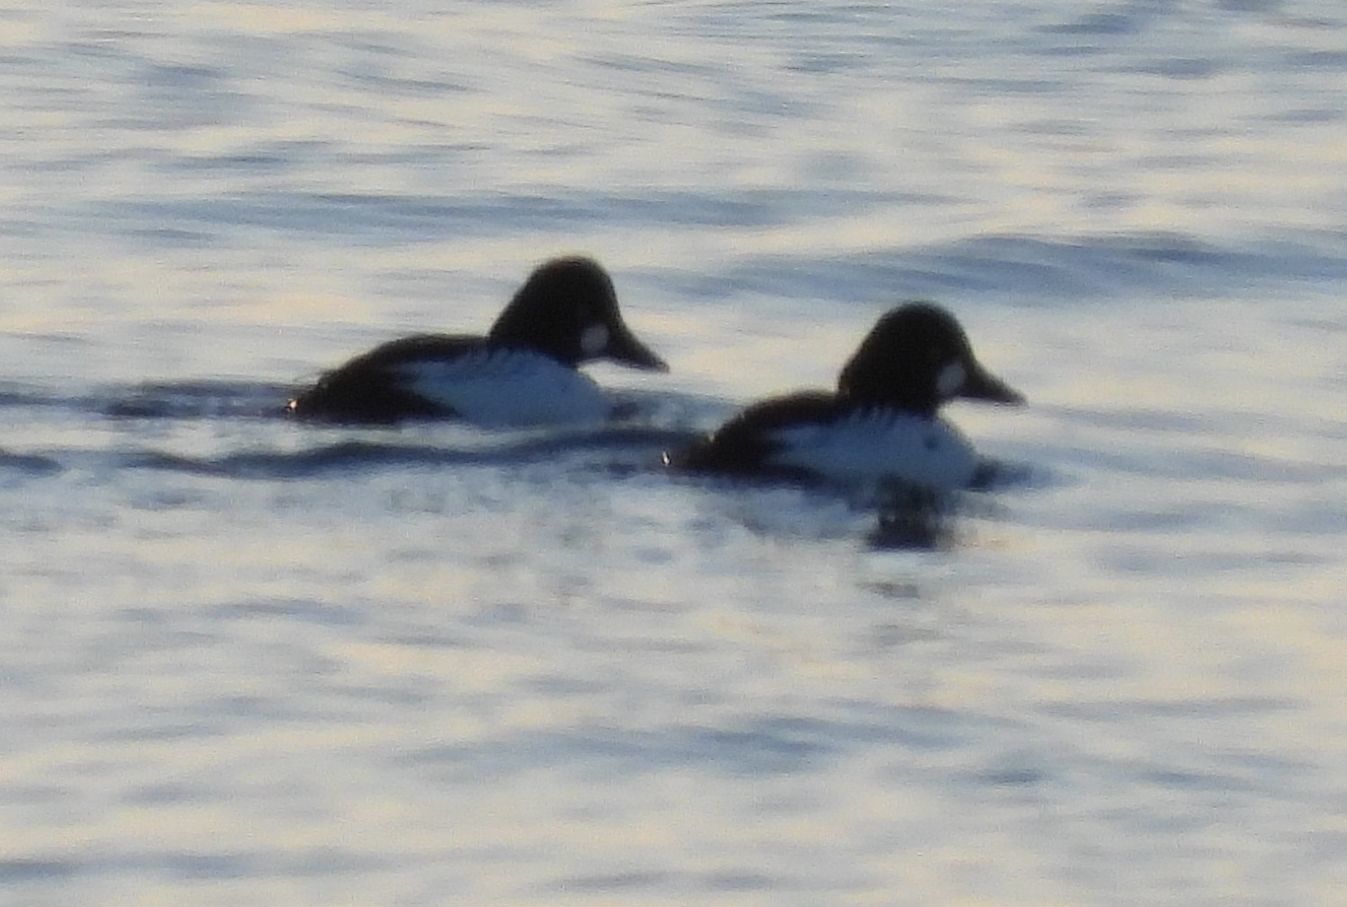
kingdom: Animalia
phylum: Chordata
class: Aves
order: Anseriformes
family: Anatidae
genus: Bucephala
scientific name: Bucephala clangula
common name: Common goldeneye
